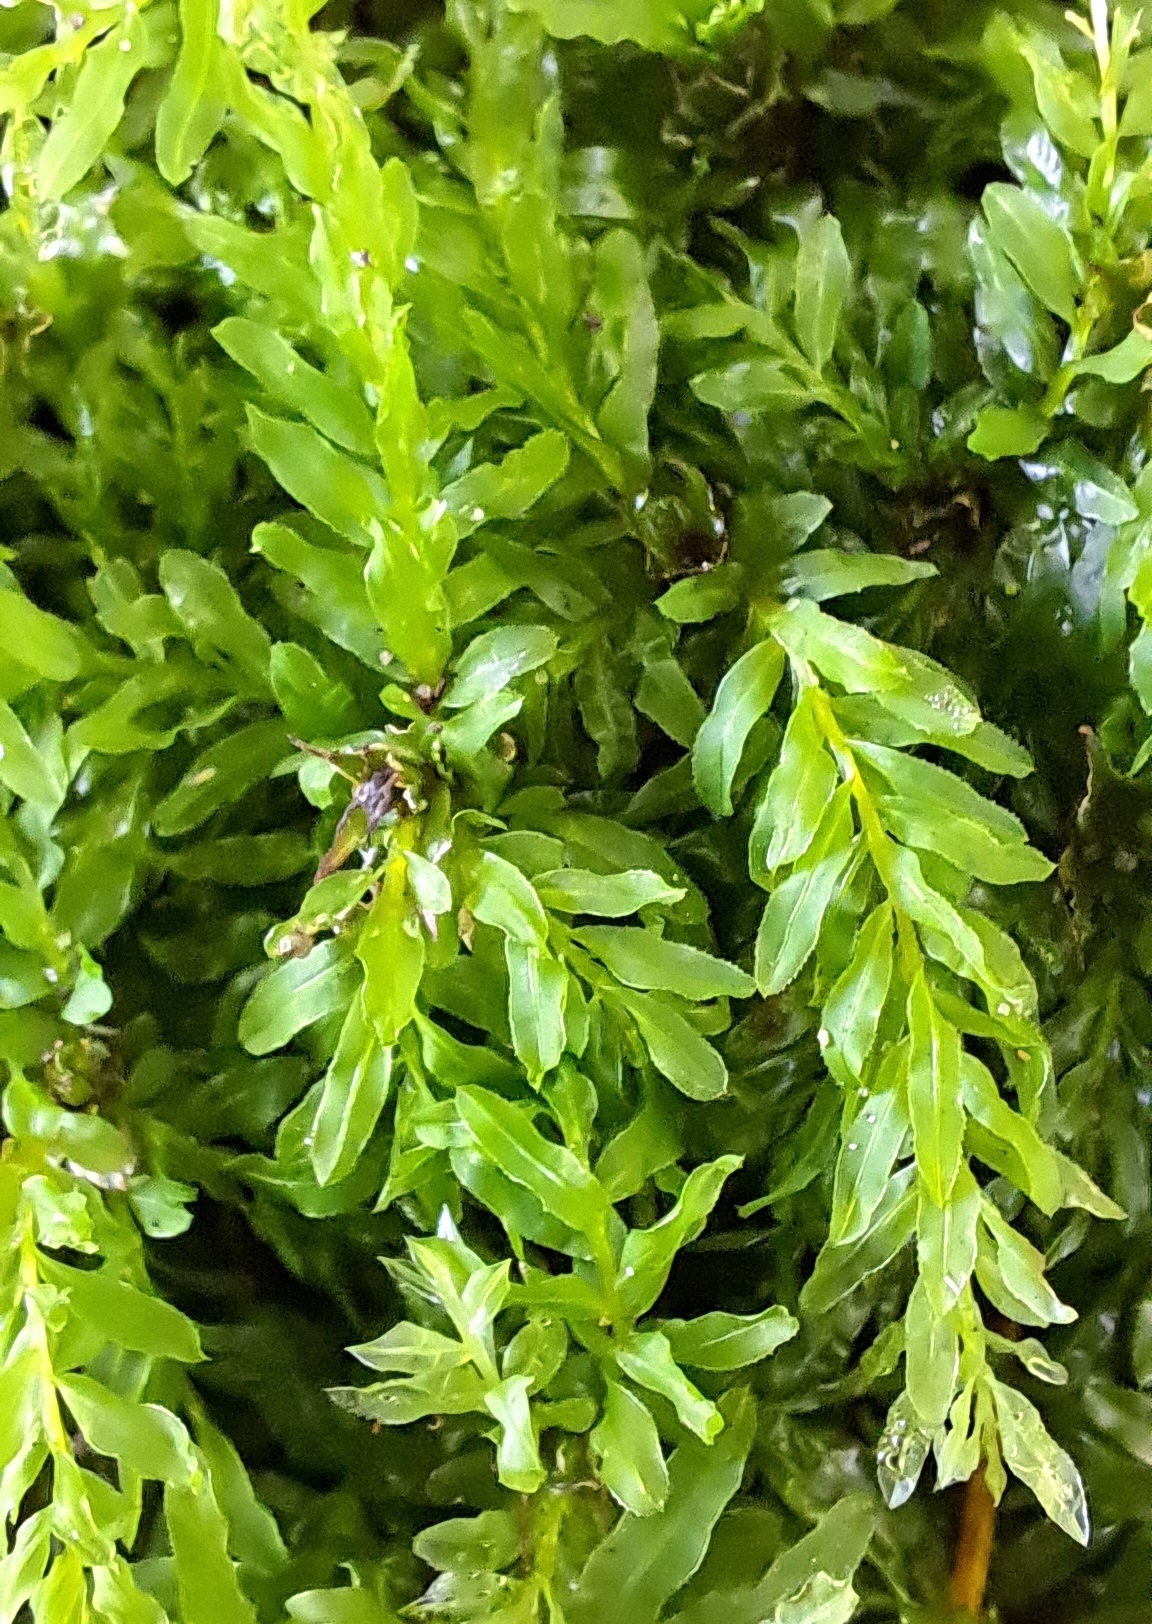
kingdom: Plantae
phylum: Bryophyta
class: Bryopsida
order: Bryales
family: Mniaceae
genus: Plagiomnium
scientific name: Plagiomnium undulatum
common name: Hart's-tongue thyme-moss
